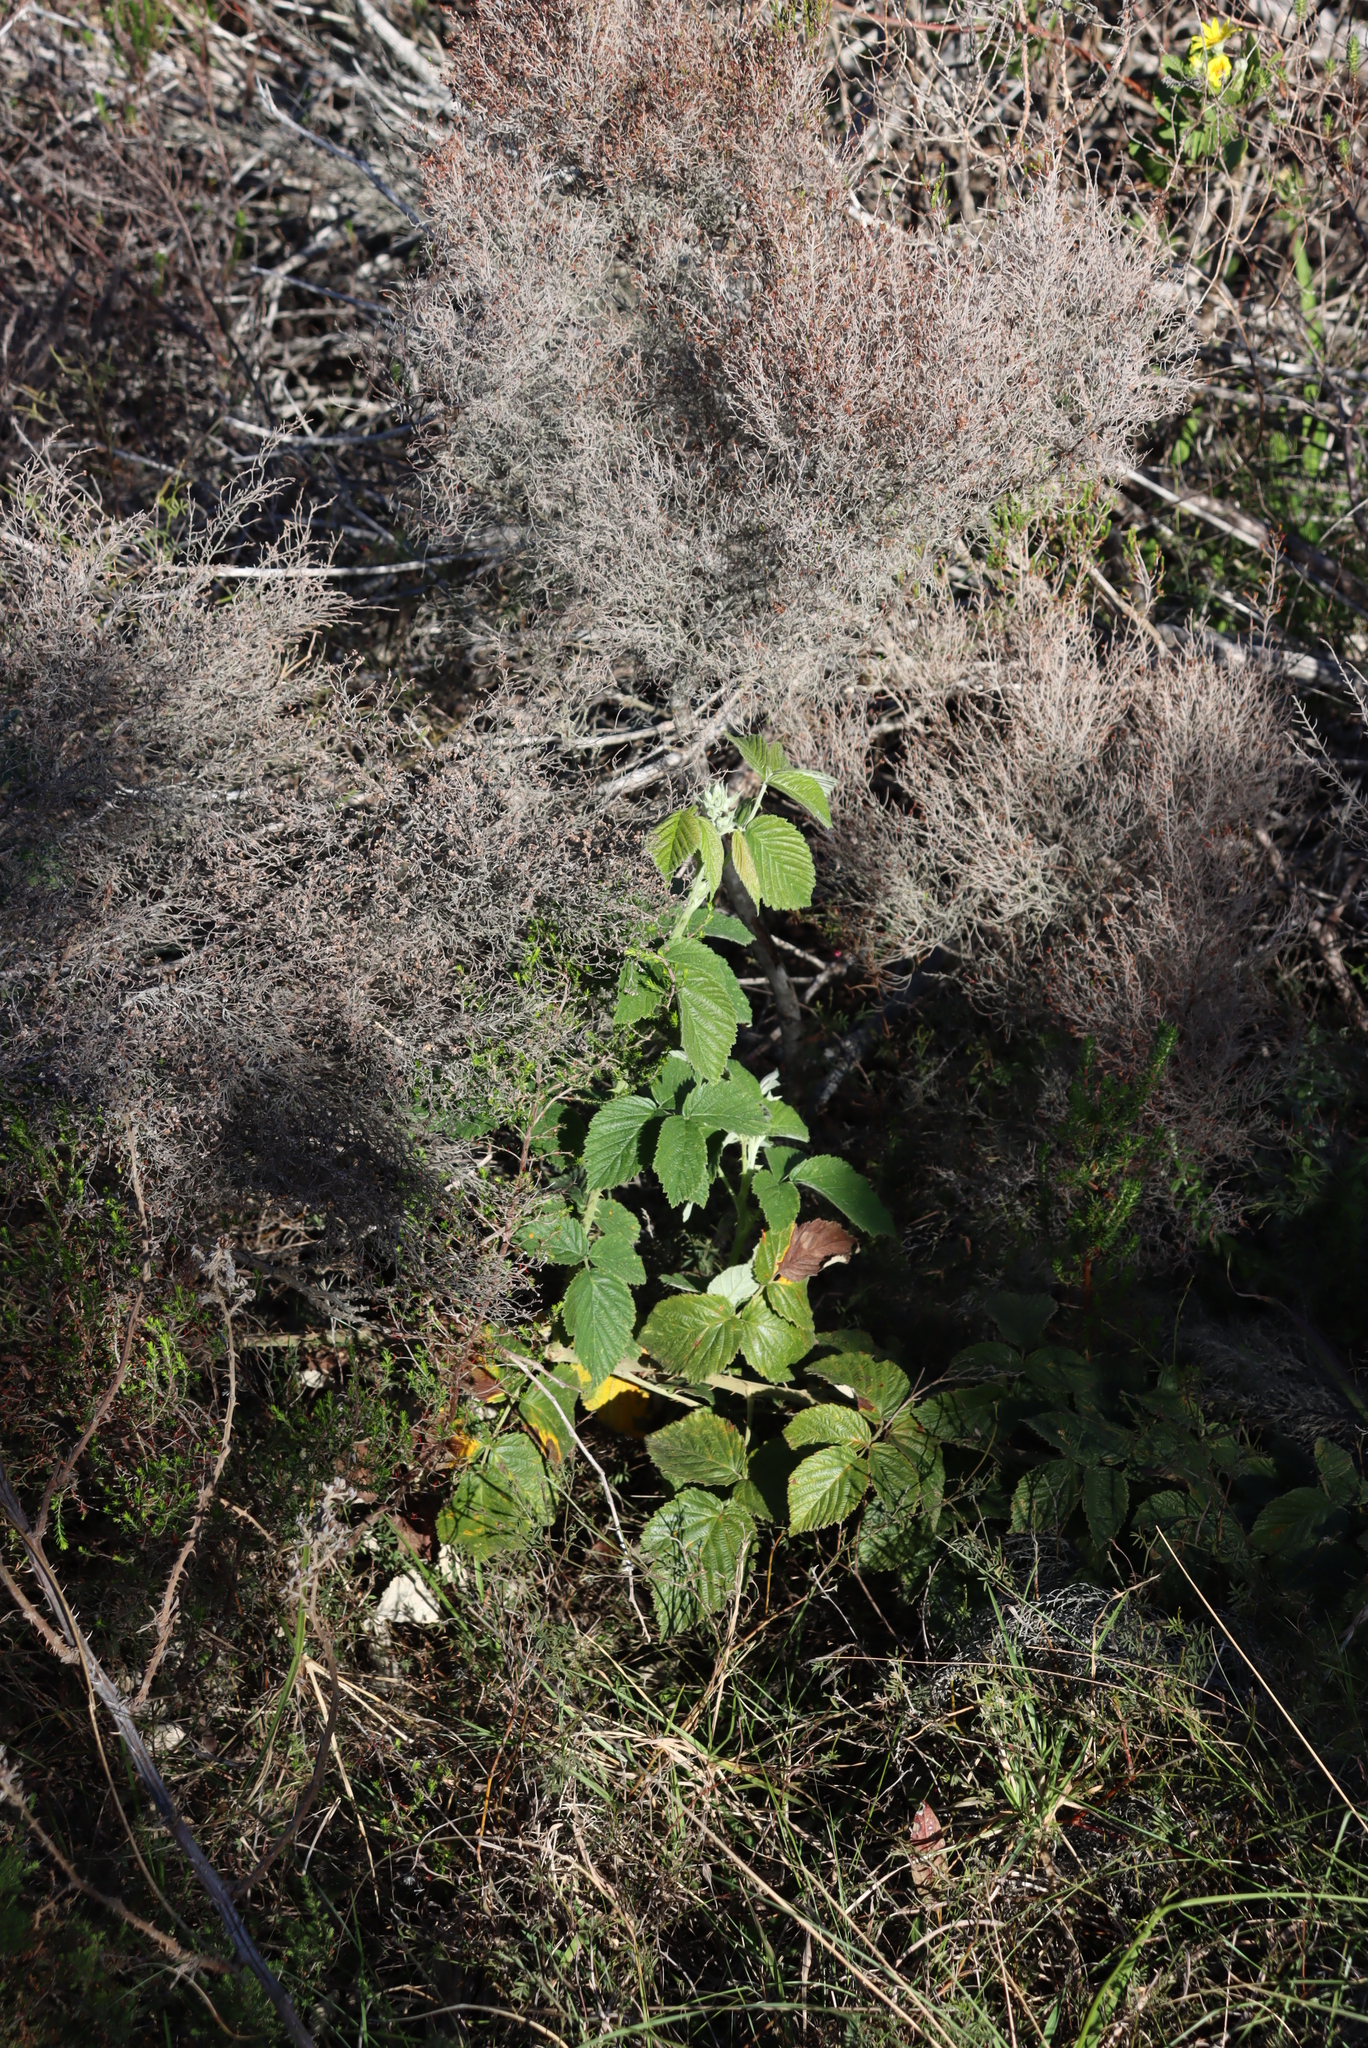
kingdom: Plantae
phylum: Tracheophyta
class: Magnoliopsida
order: Rosales
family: Rosaceae
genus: Rubus
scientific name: Rubus rigidus
